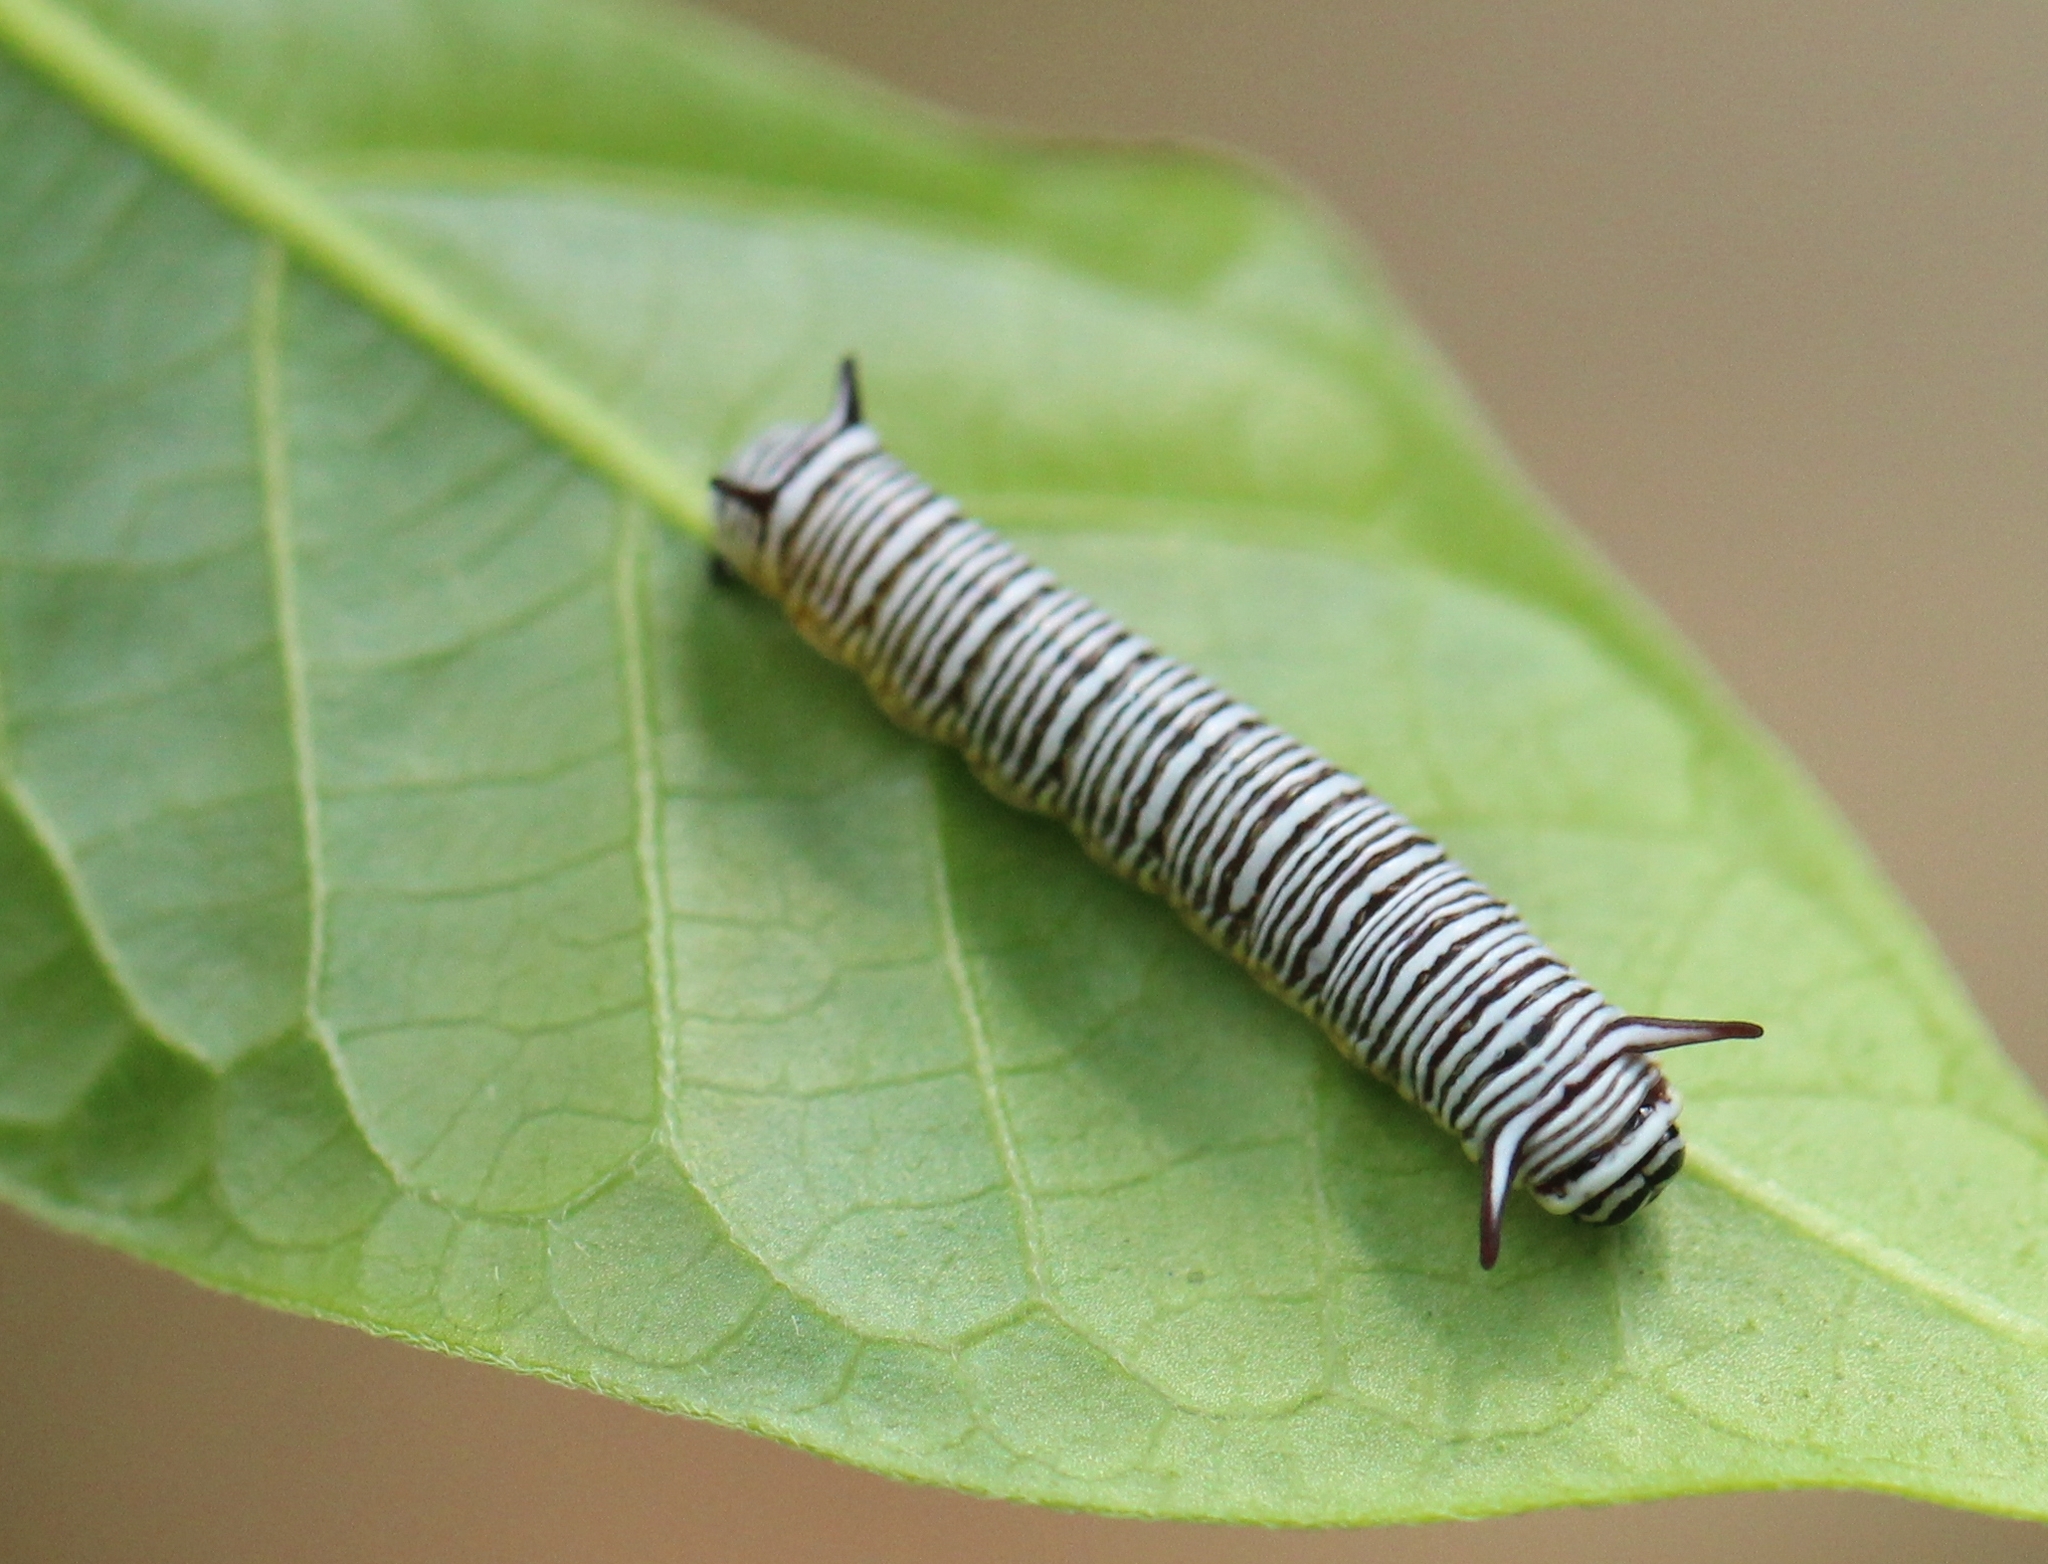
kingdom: Animalia
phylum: Arthropoda
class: Insecta
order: Lepidoptera
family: Nymphalidae
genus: Tirumala
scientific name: Tirumala septentrionis
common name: Dark blue tiger butterfly
